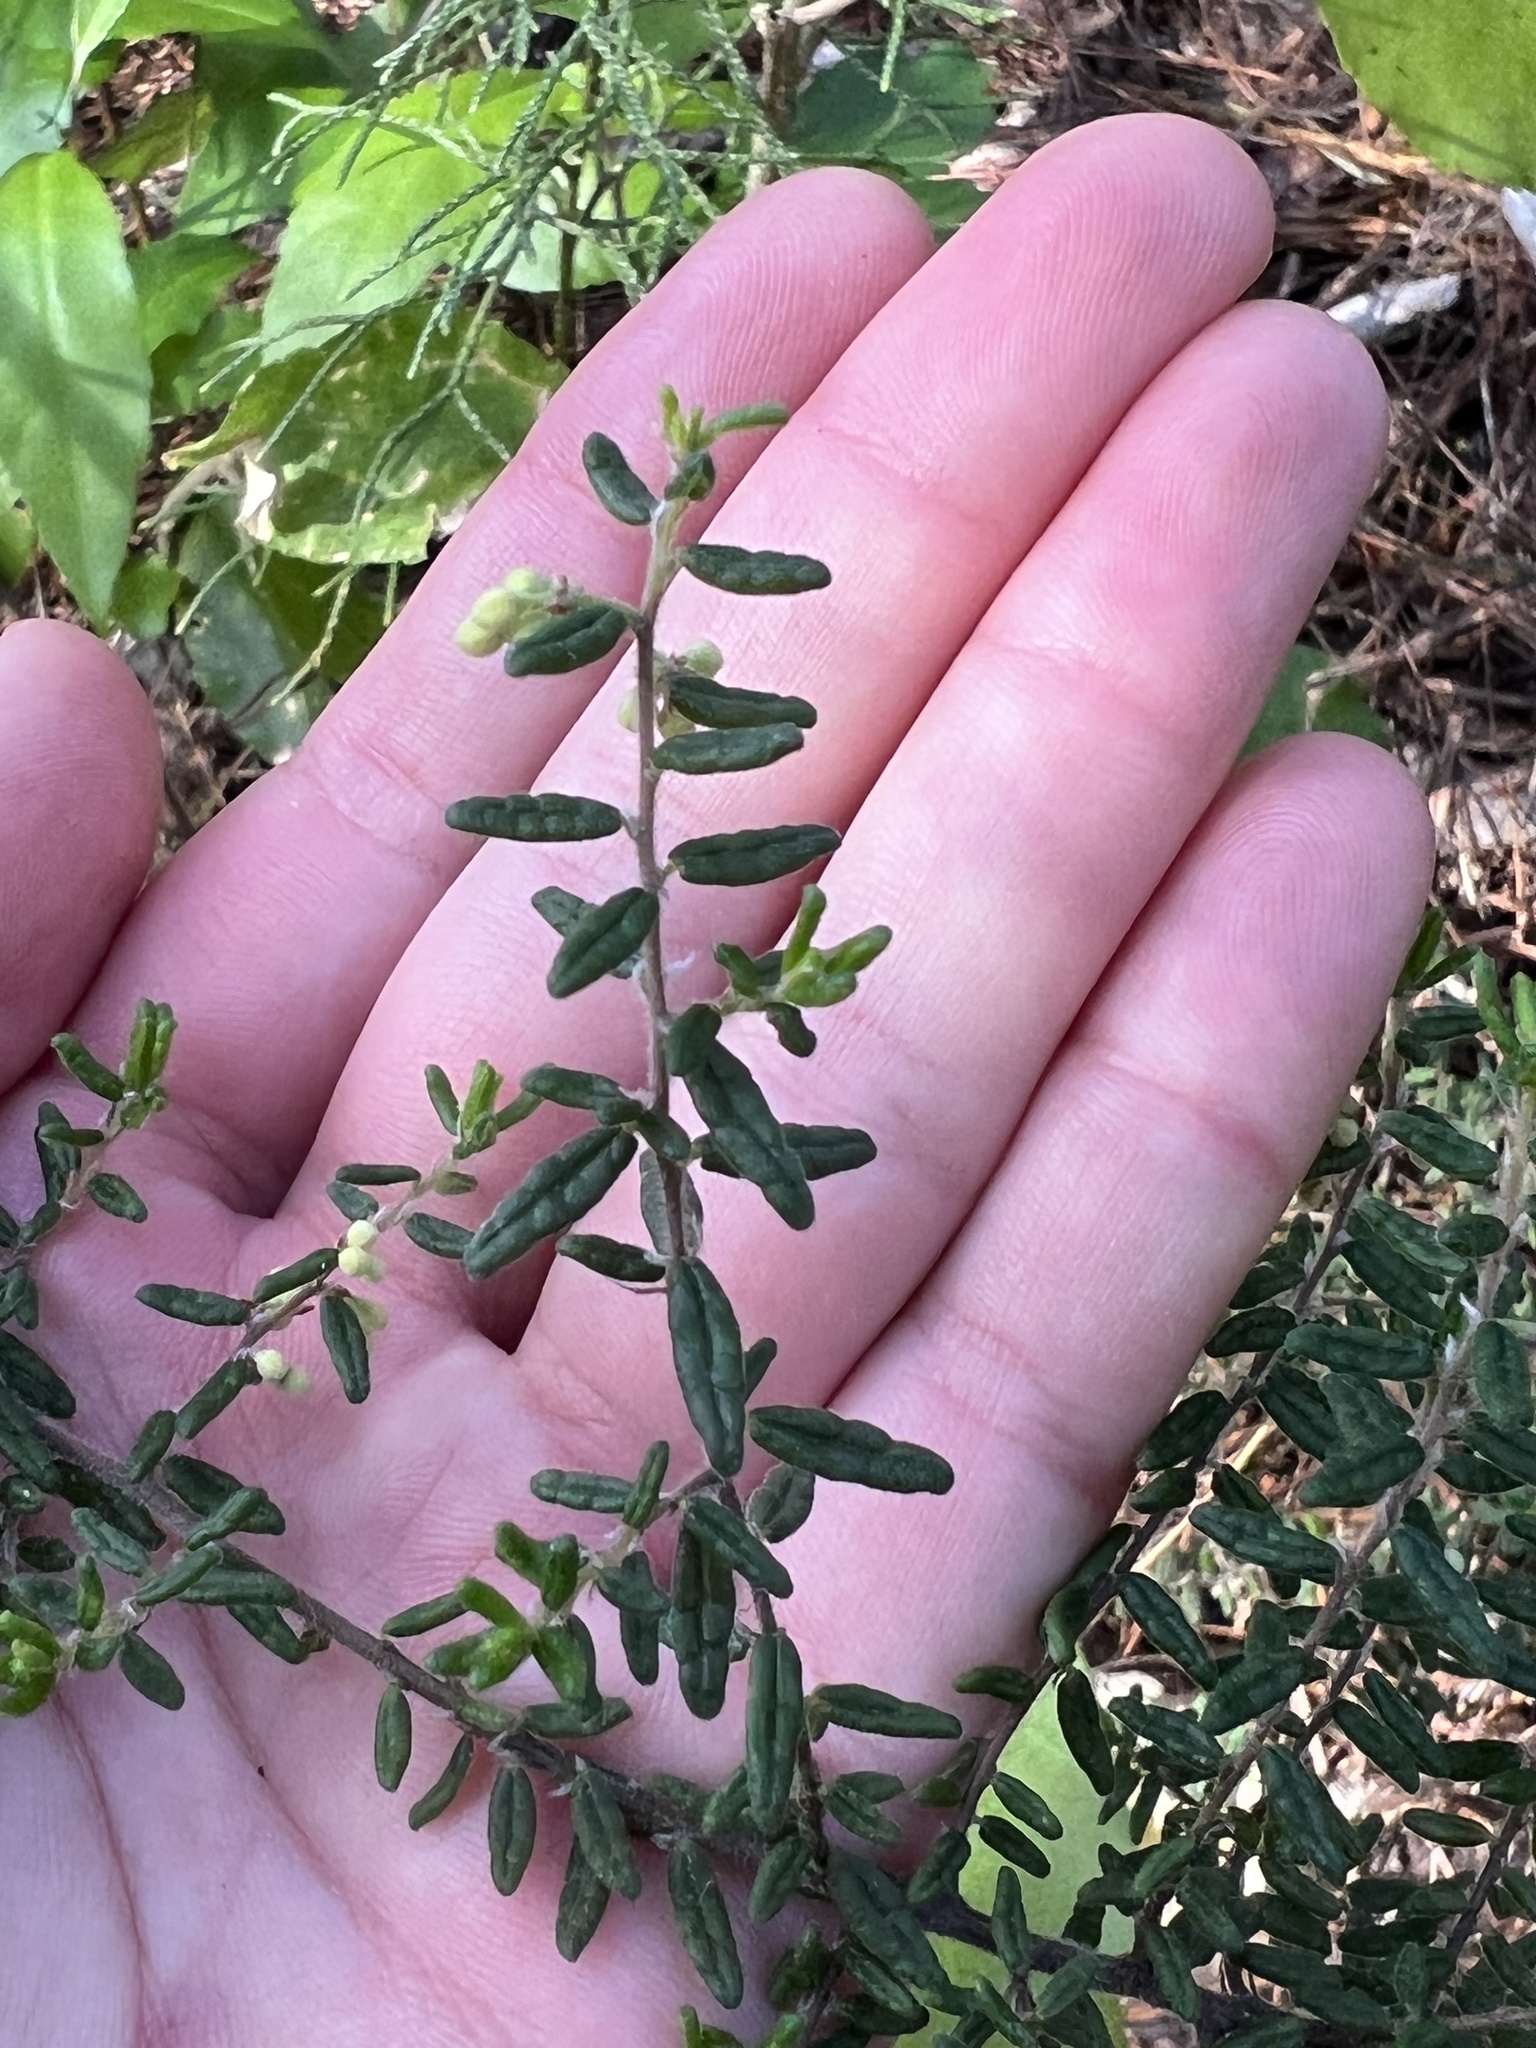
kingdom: Plantae
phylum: Tracheophyta
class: Magnoliopsida
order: Rosales
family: Rhamnaceae
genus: Pomaderris
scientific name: Pomaderris amoena
